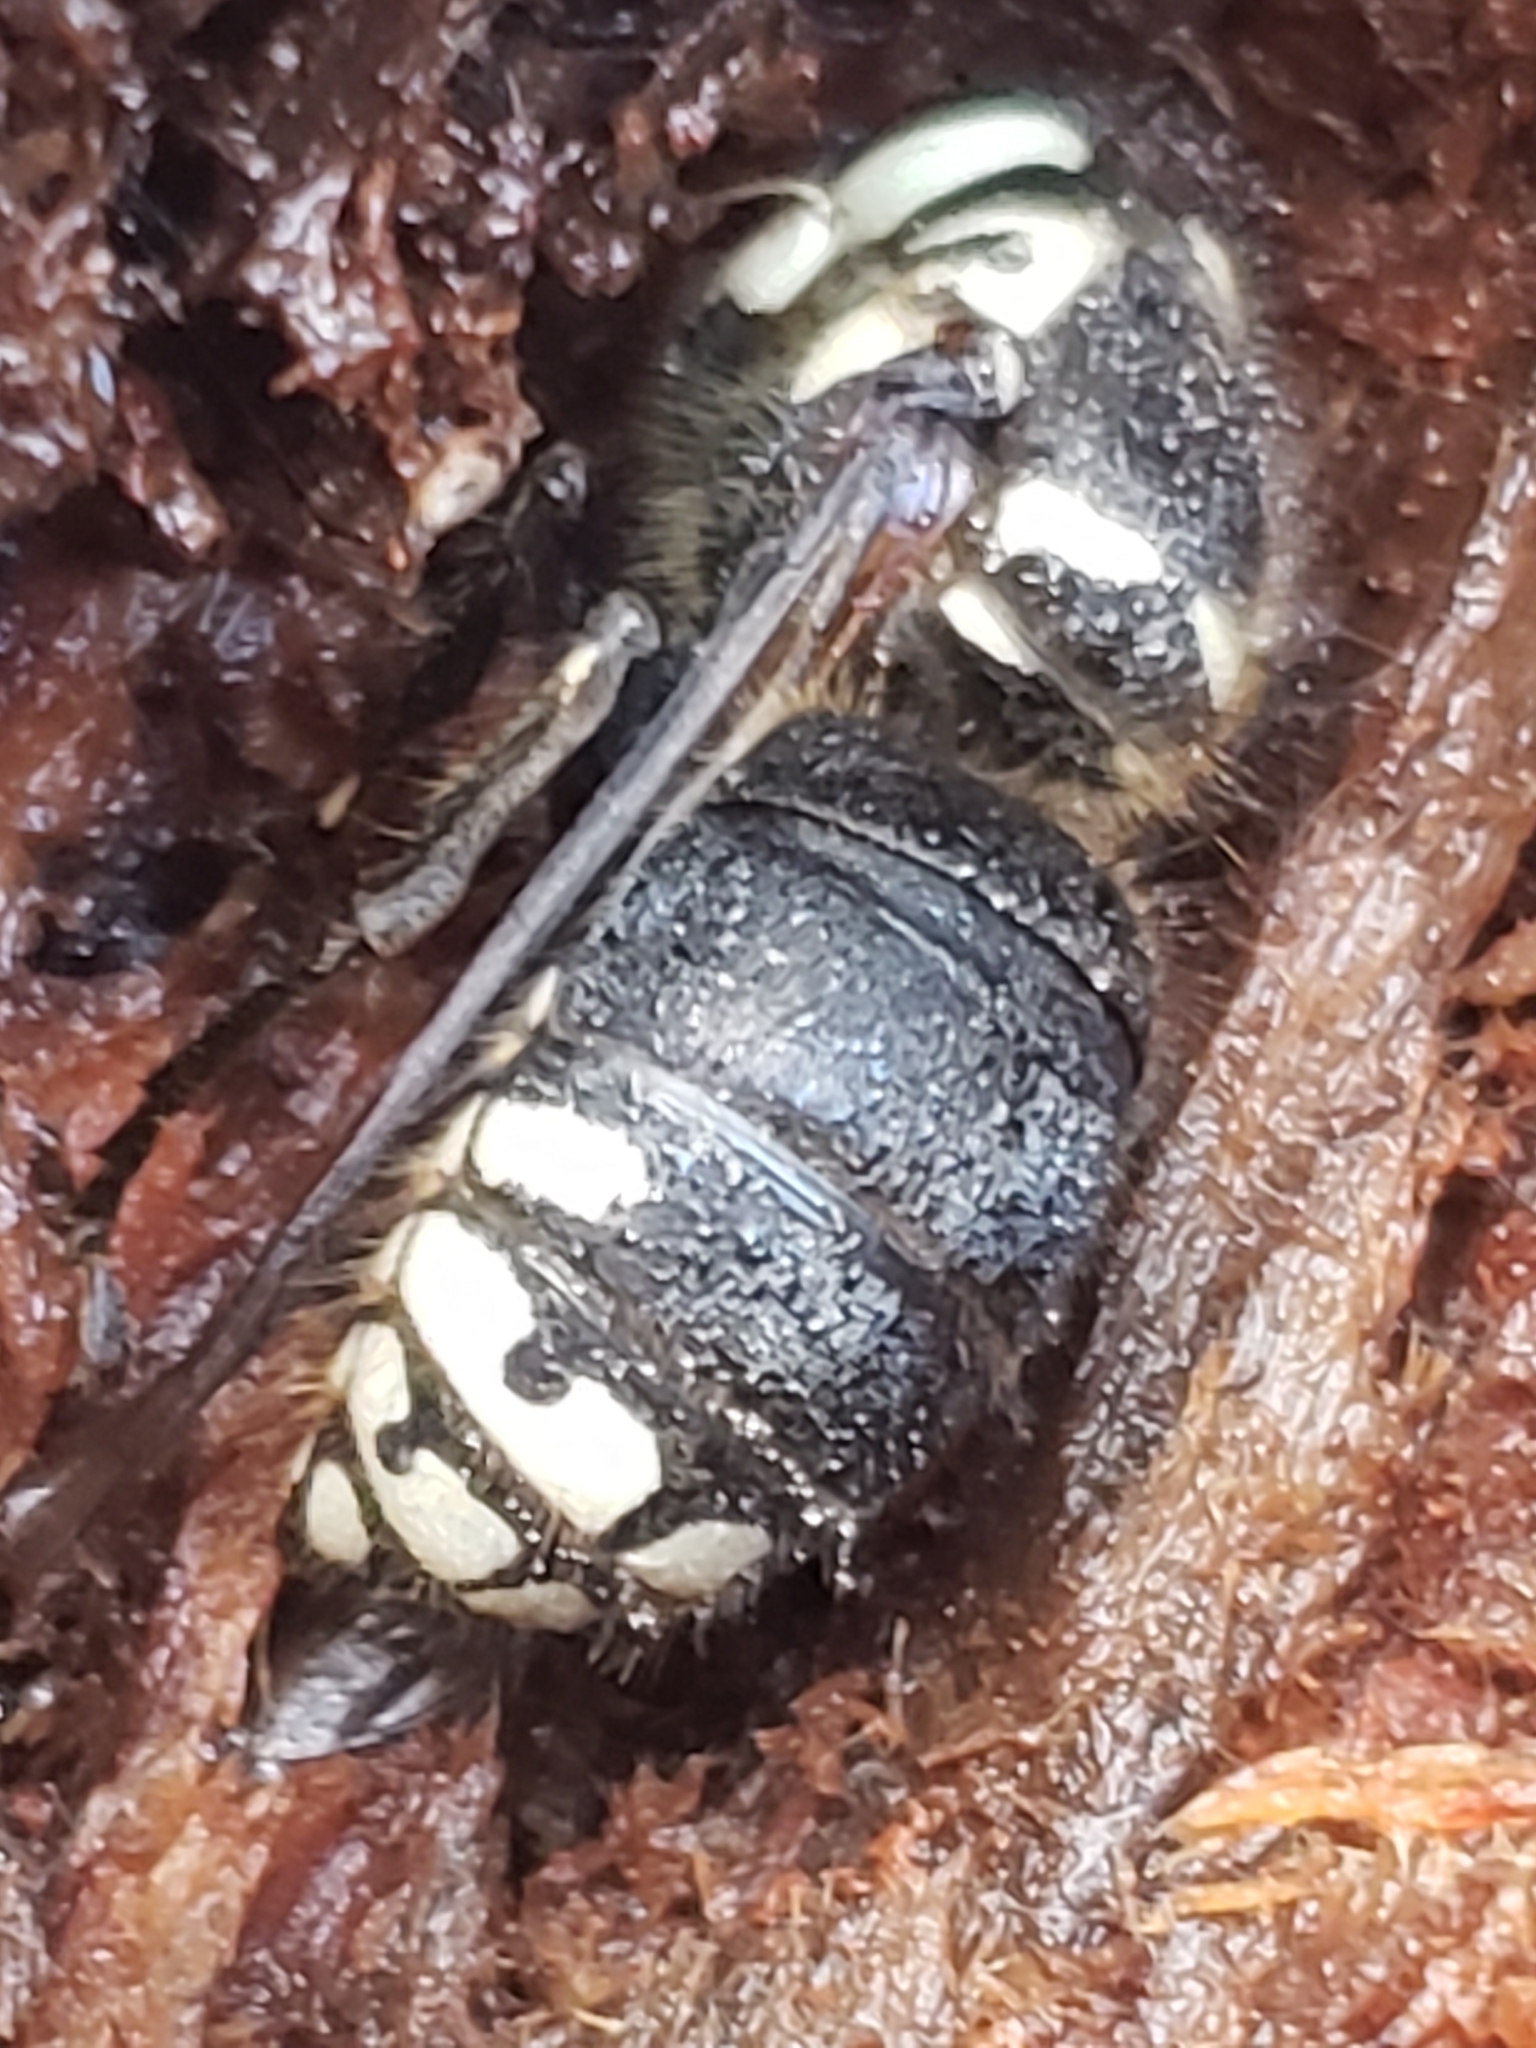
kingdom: Animalia
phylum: Arthropoda
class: Insecta
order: Hymenoptera
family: Vespidae
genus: Dolichovespula
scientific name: Dolichovespula maculata
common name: Bald-faced hornet
